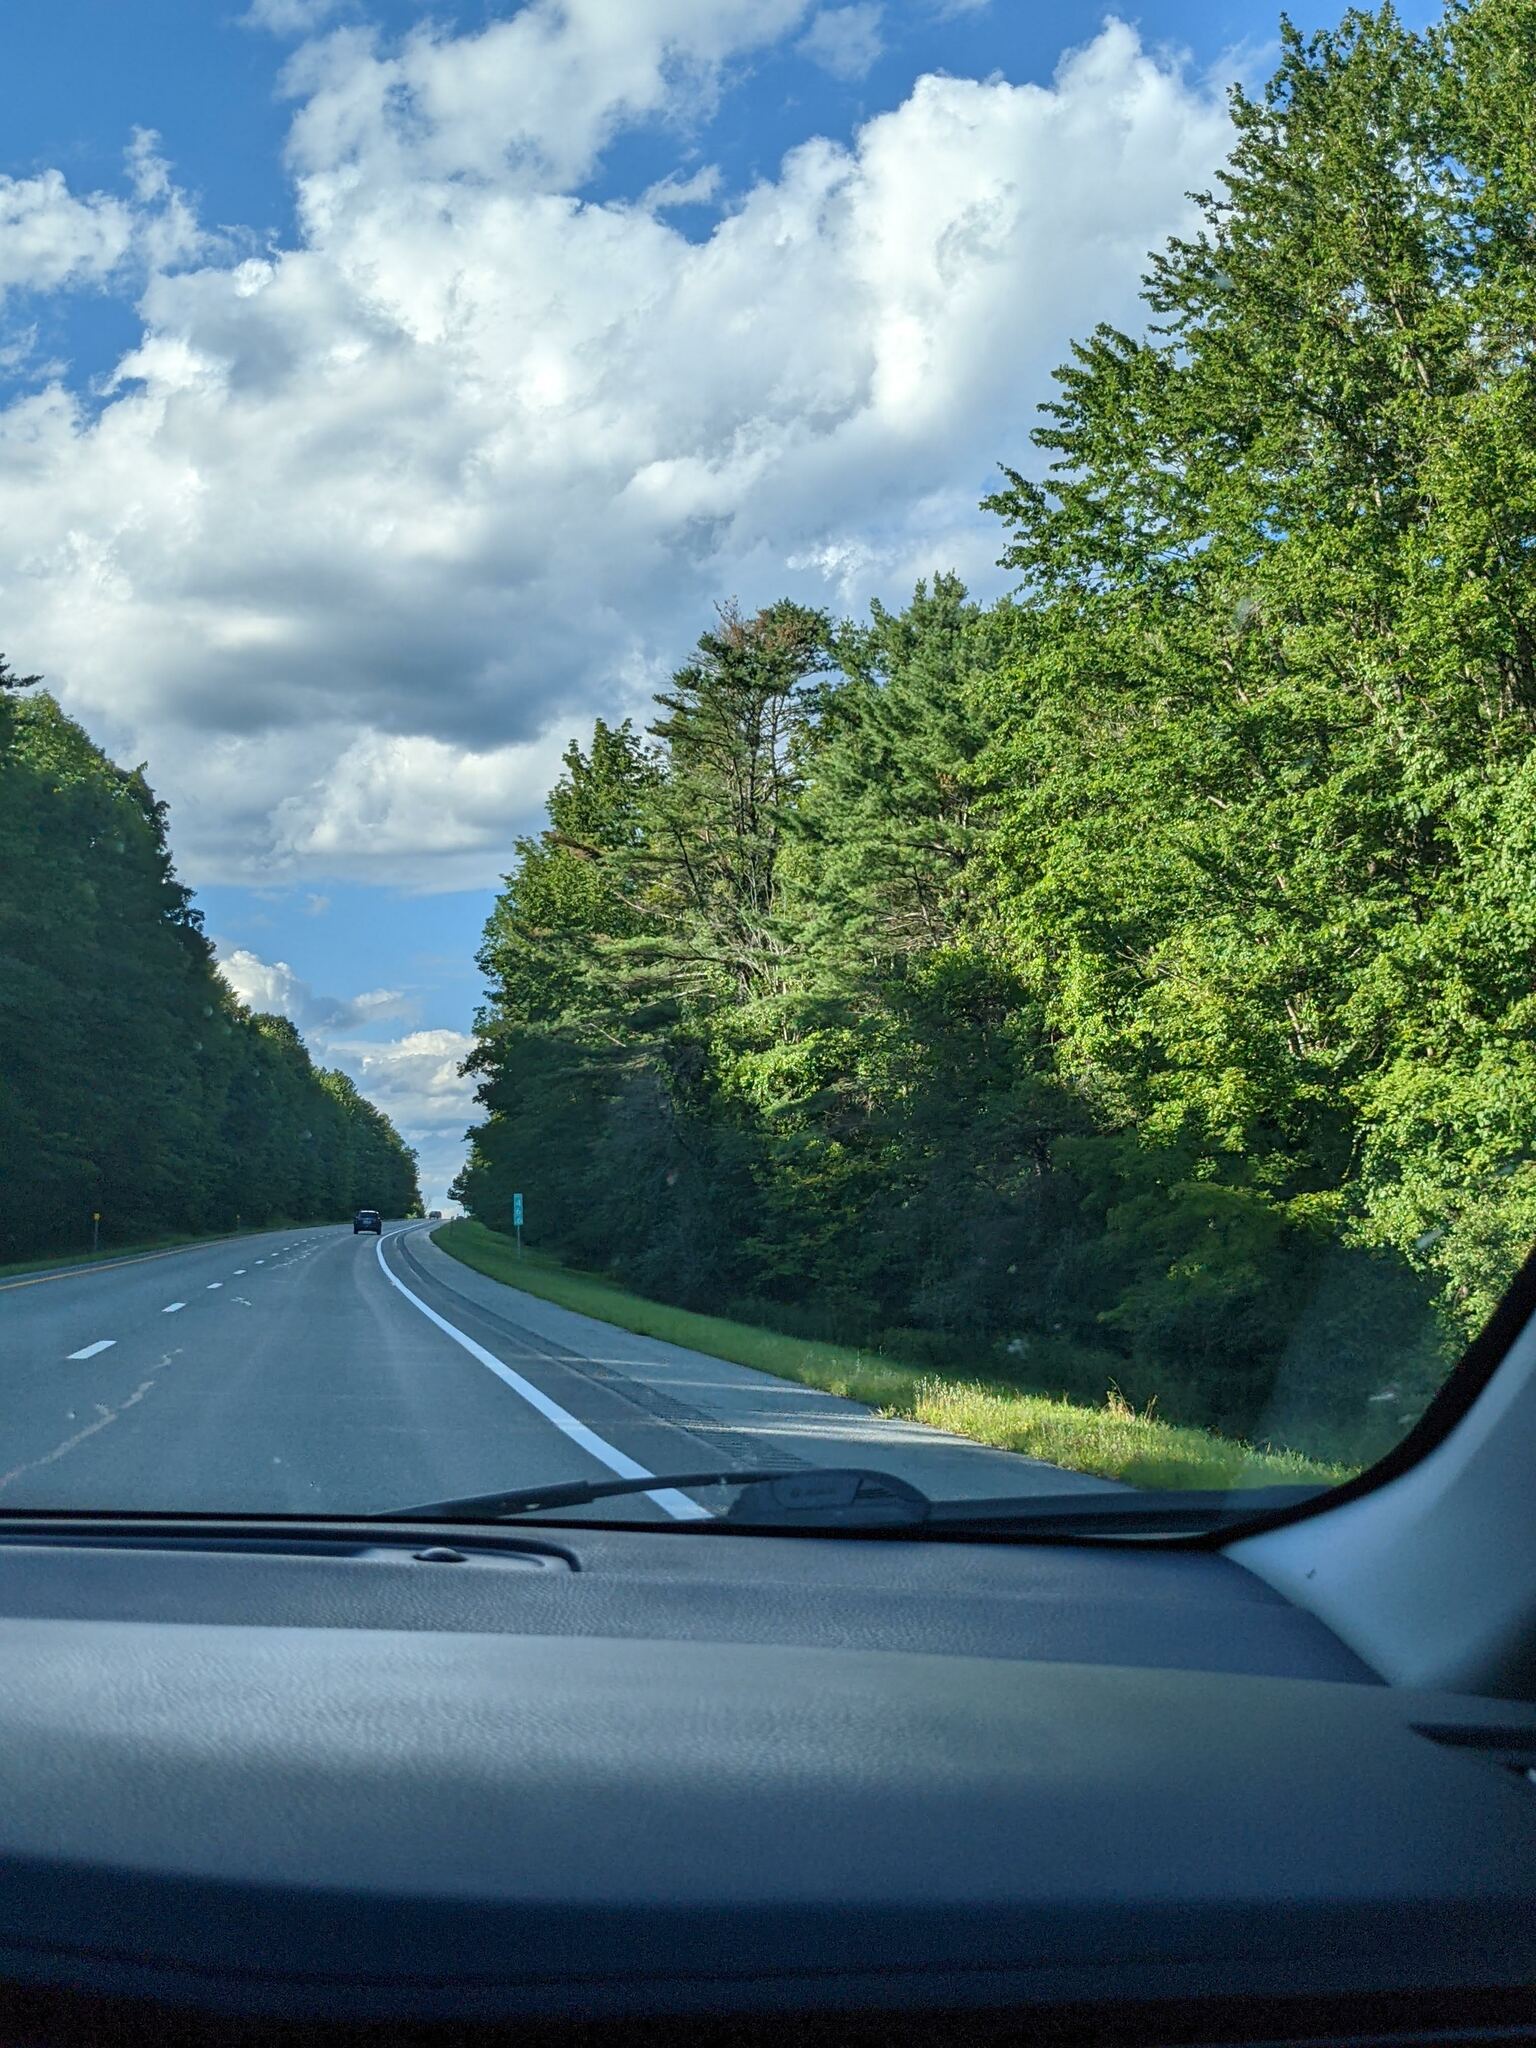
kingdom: Plantae
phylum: Tracheophyta
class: Pinopsida
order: Pinales
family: Pinaceae
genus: Pinus
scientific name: Pinus strobus
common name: Weymouth pine
